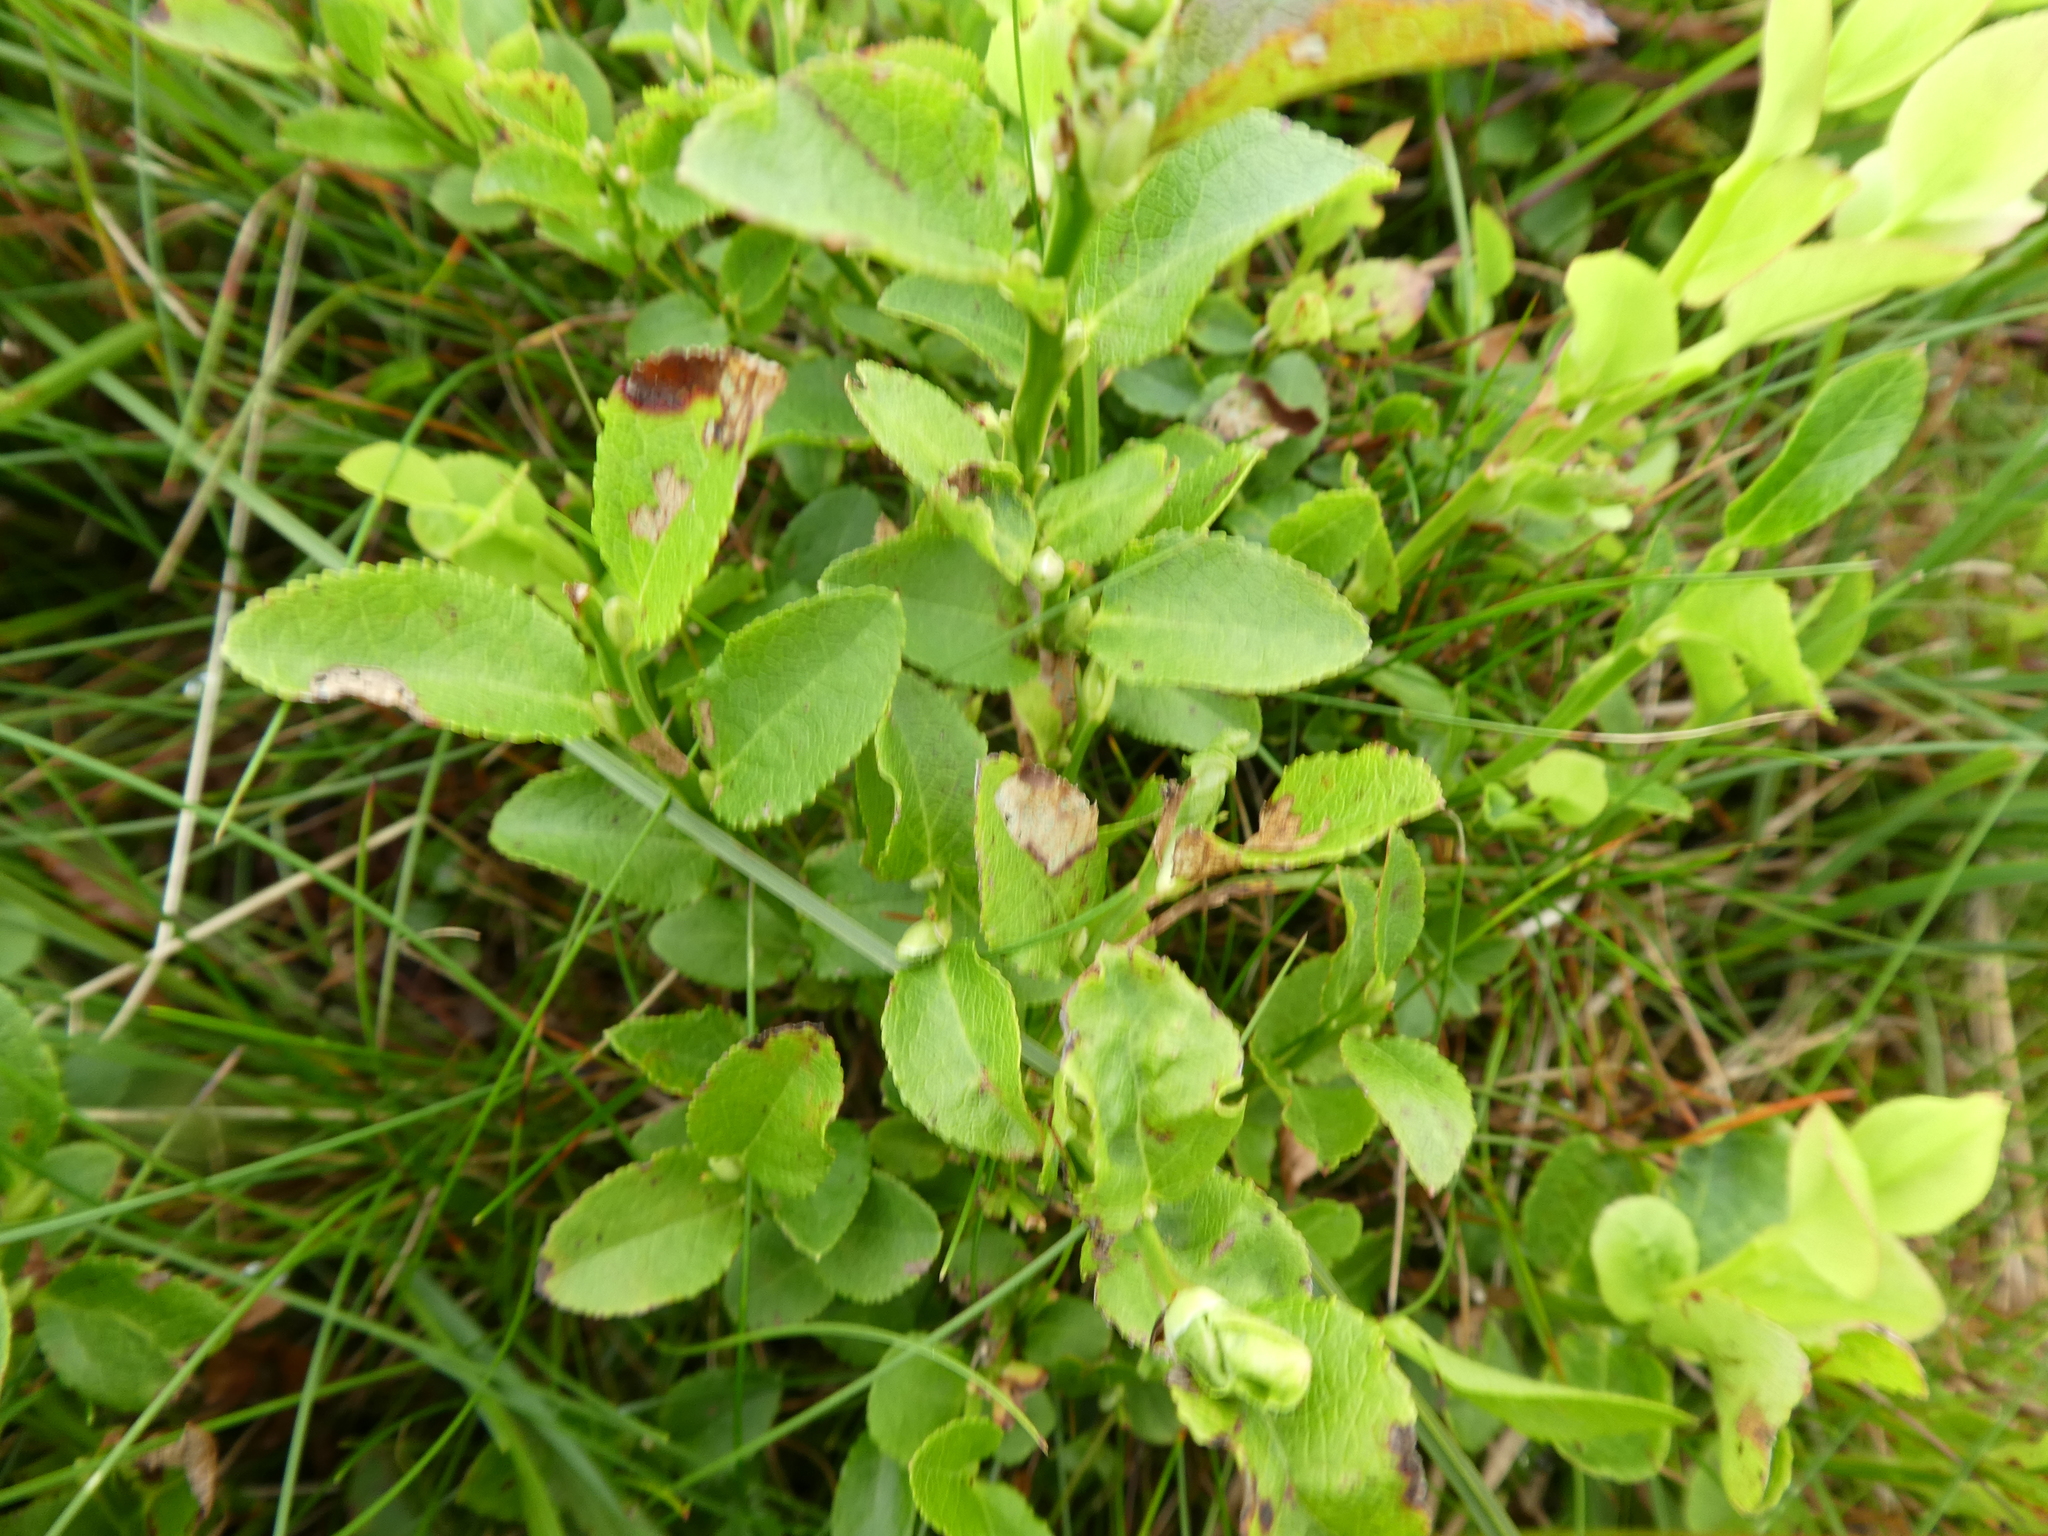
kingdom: Plantae
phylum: Tracheophyta
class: Magnoliopsida
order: Ericales
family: Ericaceae
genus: Vaccinium
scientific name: Vaccinium myrtillus
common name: Bilberry
